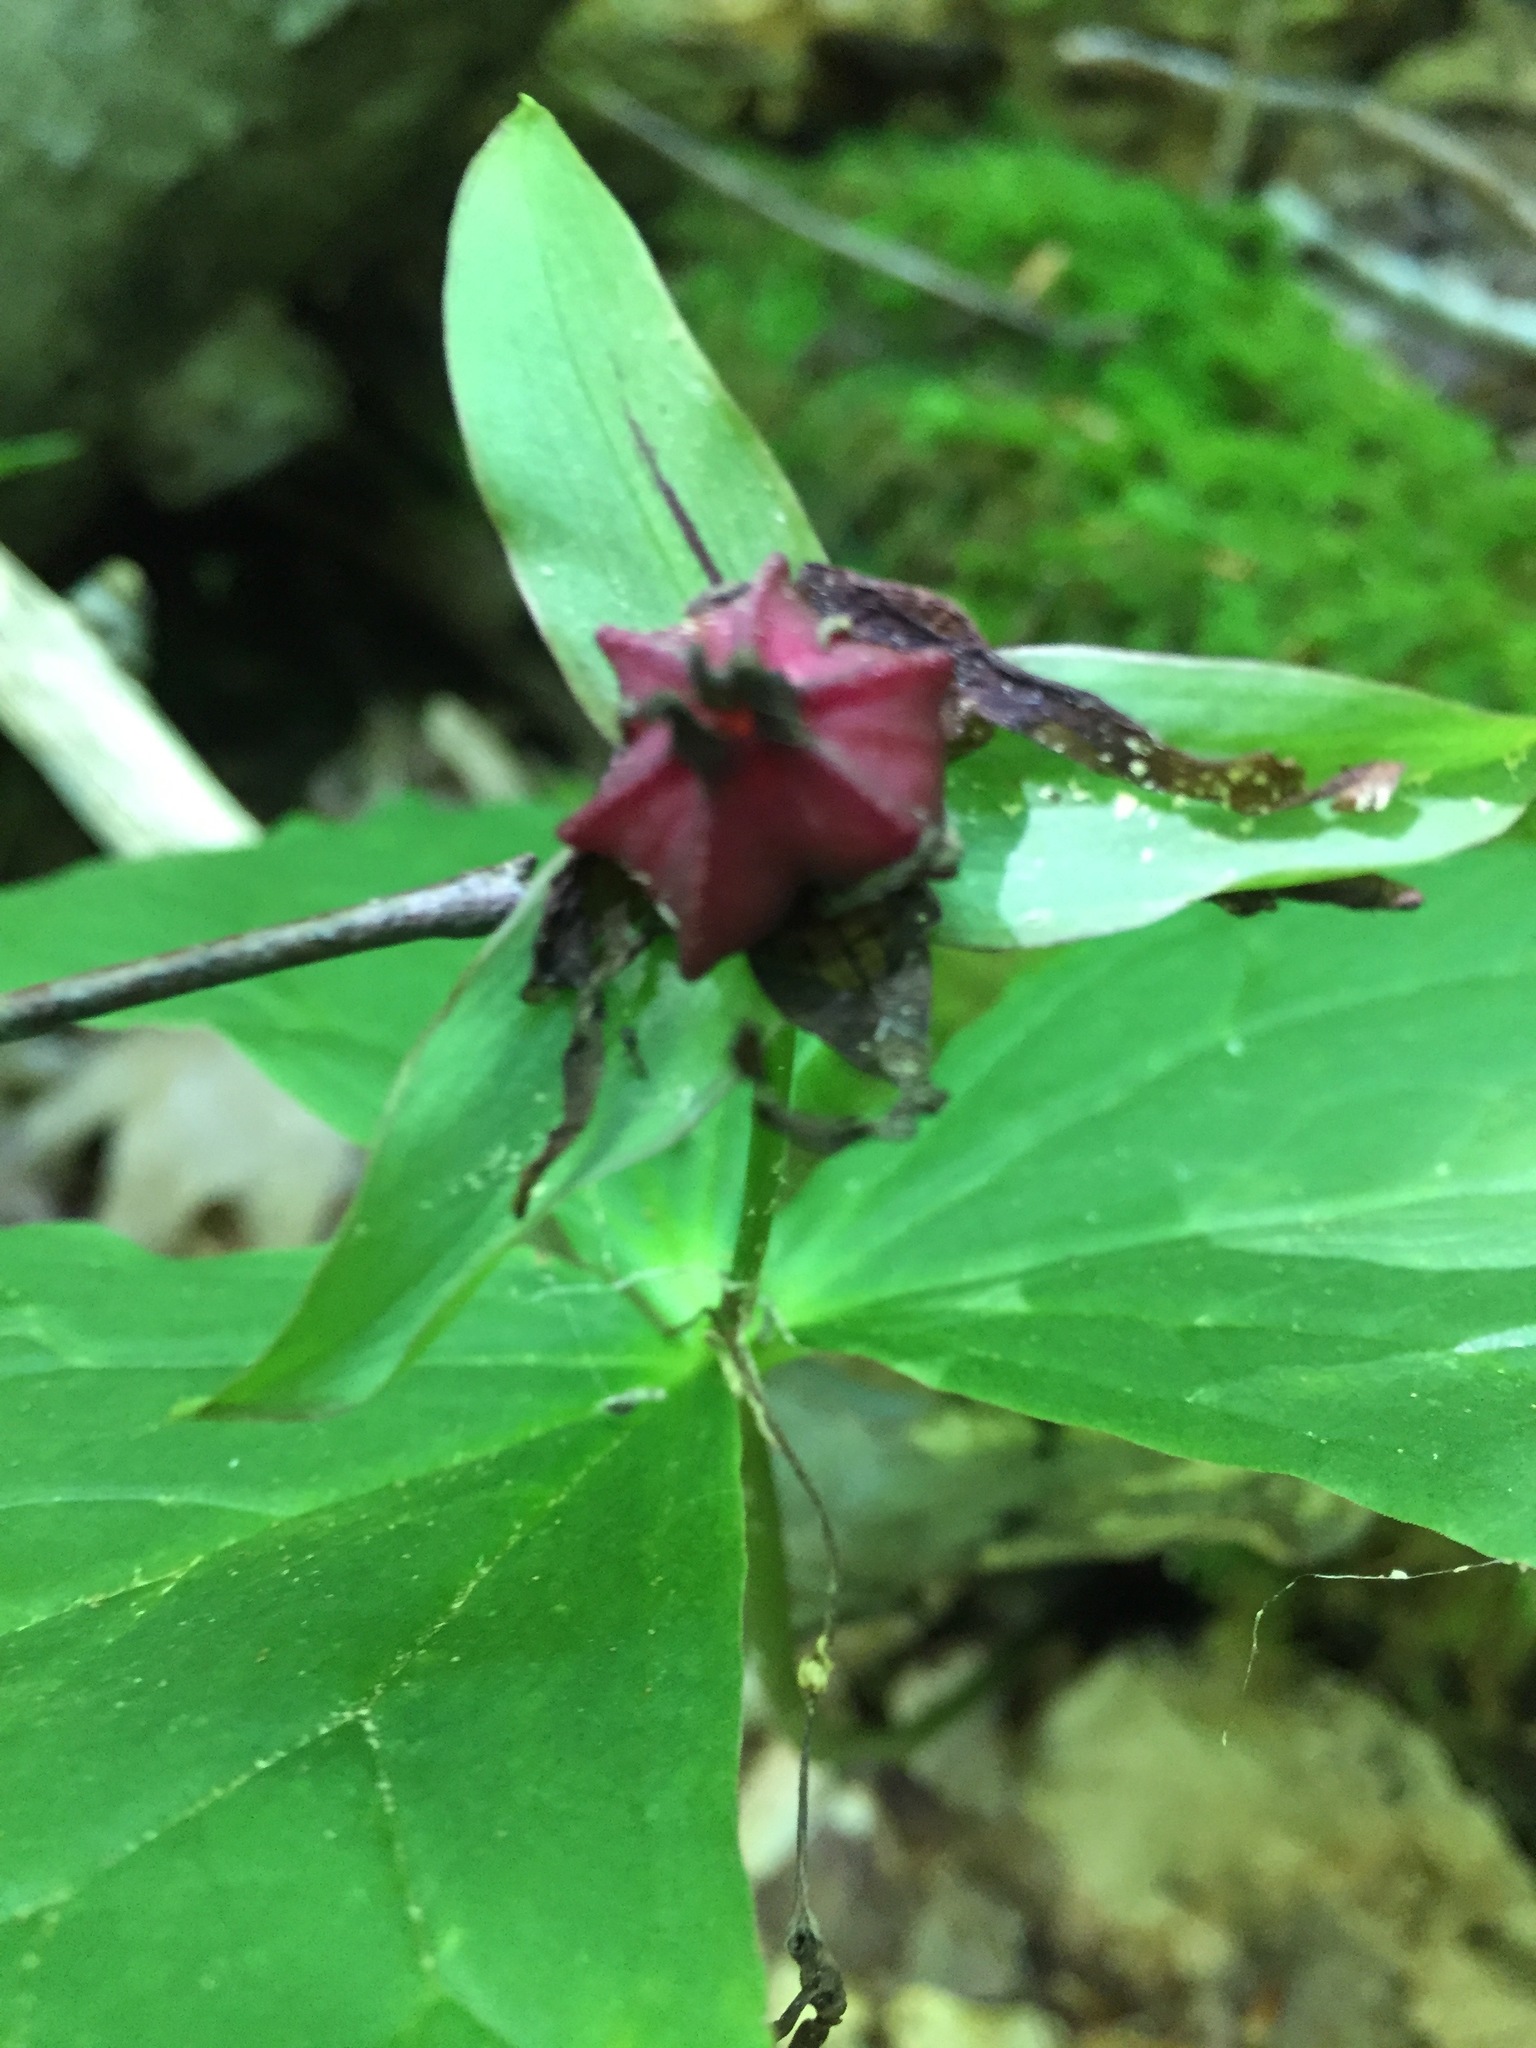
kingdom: Plantae
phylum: Tracheophyta
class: Liliopsida
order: Liliales
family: Melanthiaceae
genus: Trillium
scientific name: Trillium erectum
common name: Purple trillium
